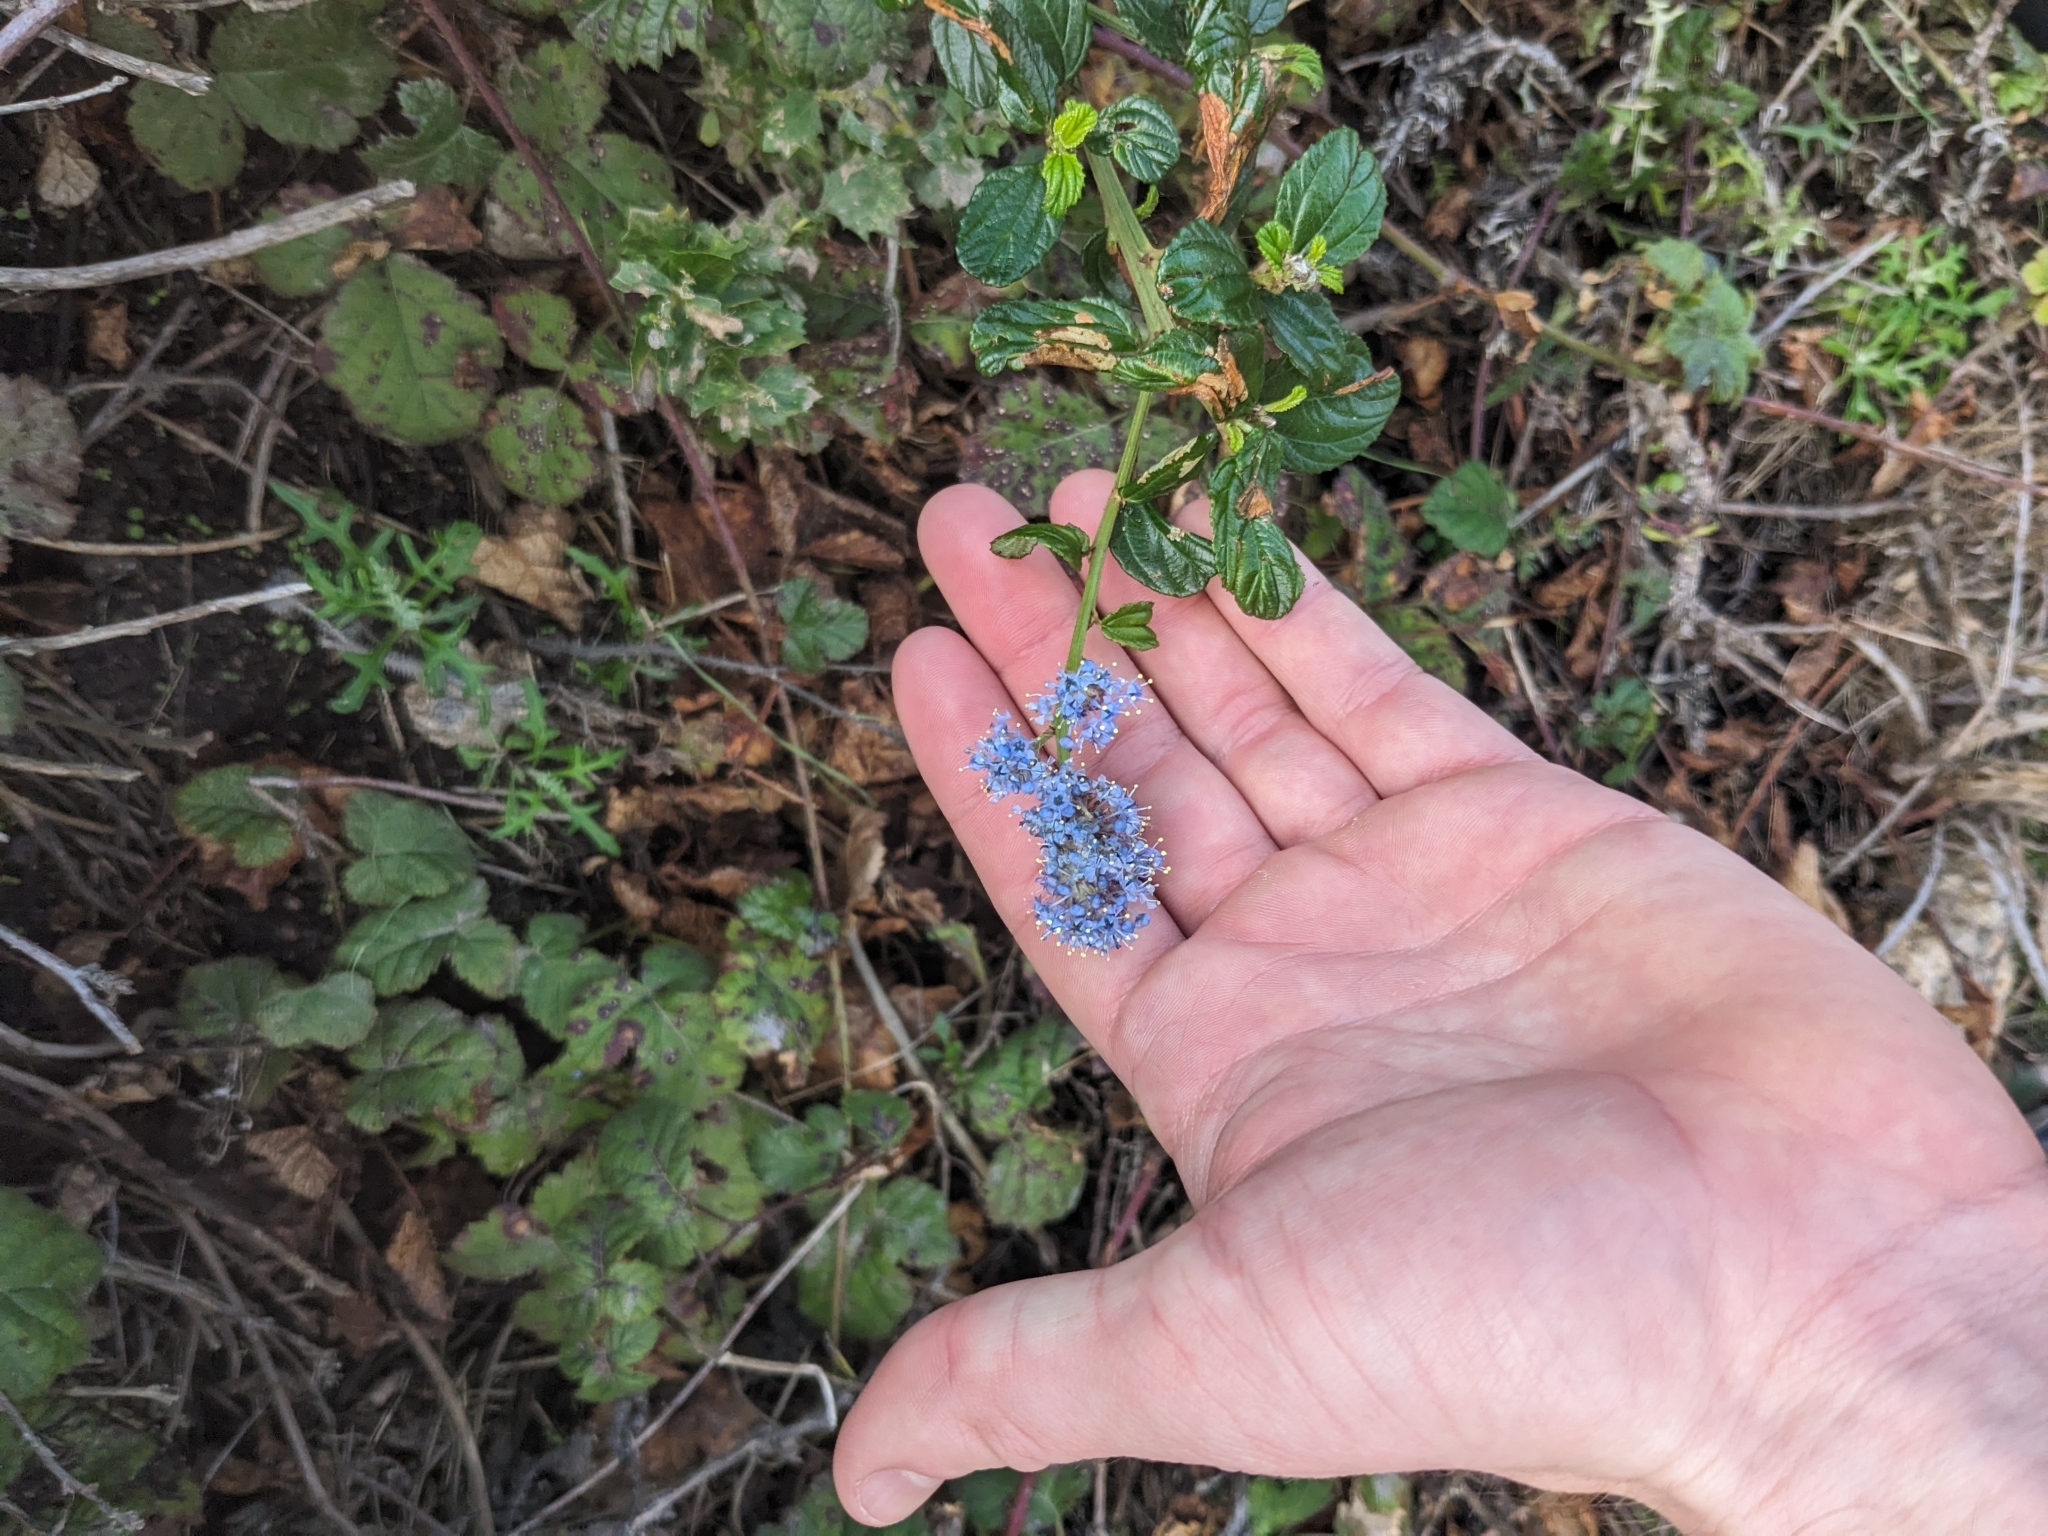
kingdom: Plantae
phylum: Tracheophyta
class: Magnoliopsida
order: Rosales
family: Rhamnaceae
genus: Ceanothus
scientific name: Ceanothus thyrsiflorus
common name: California-lilac
